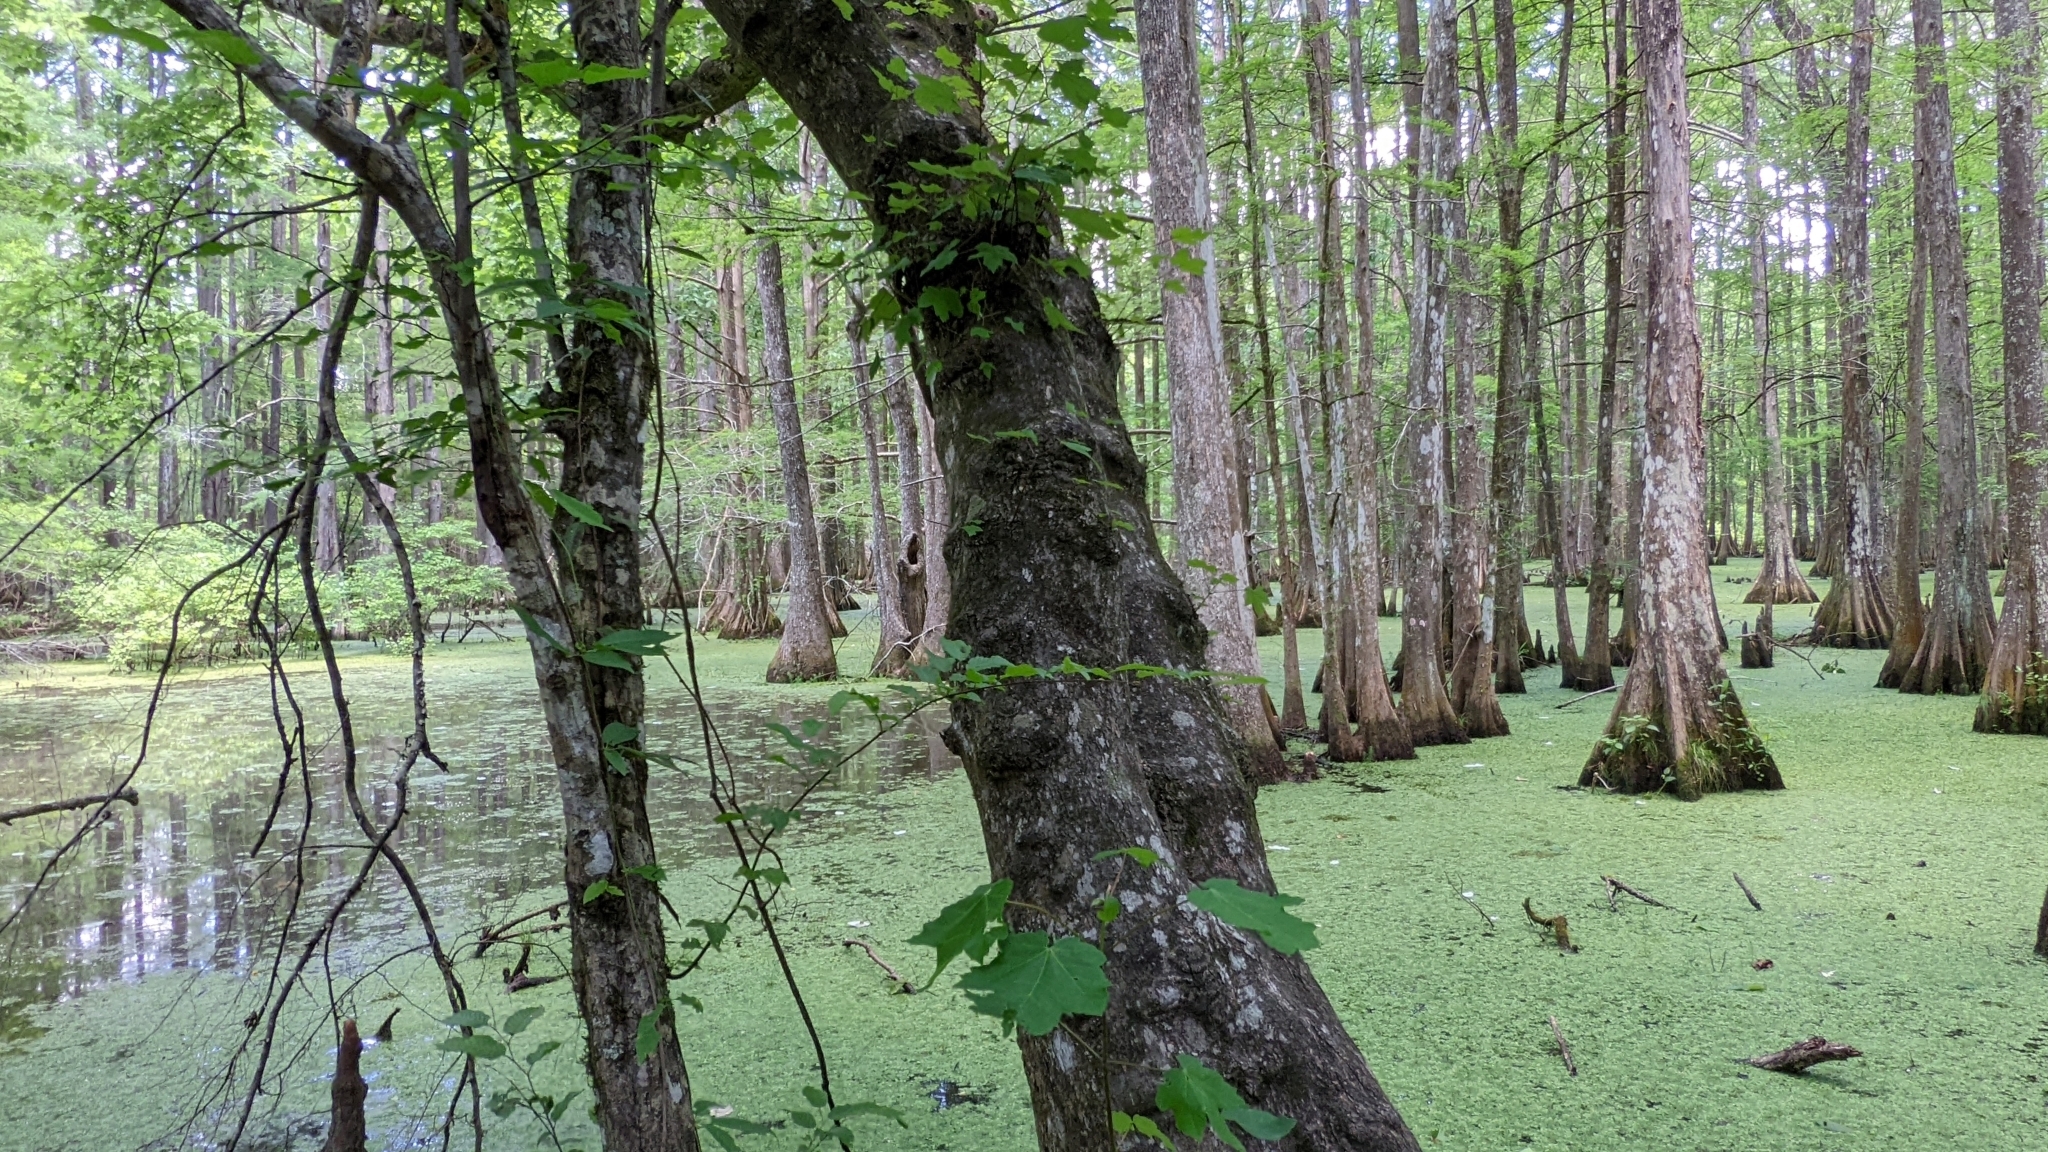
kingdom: Plantae
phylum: Tracheophyta
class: Magnoliopsida
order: Sapindales
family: Sapindaceae
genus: Acer
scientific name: Acer rubrum
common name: Red maple
